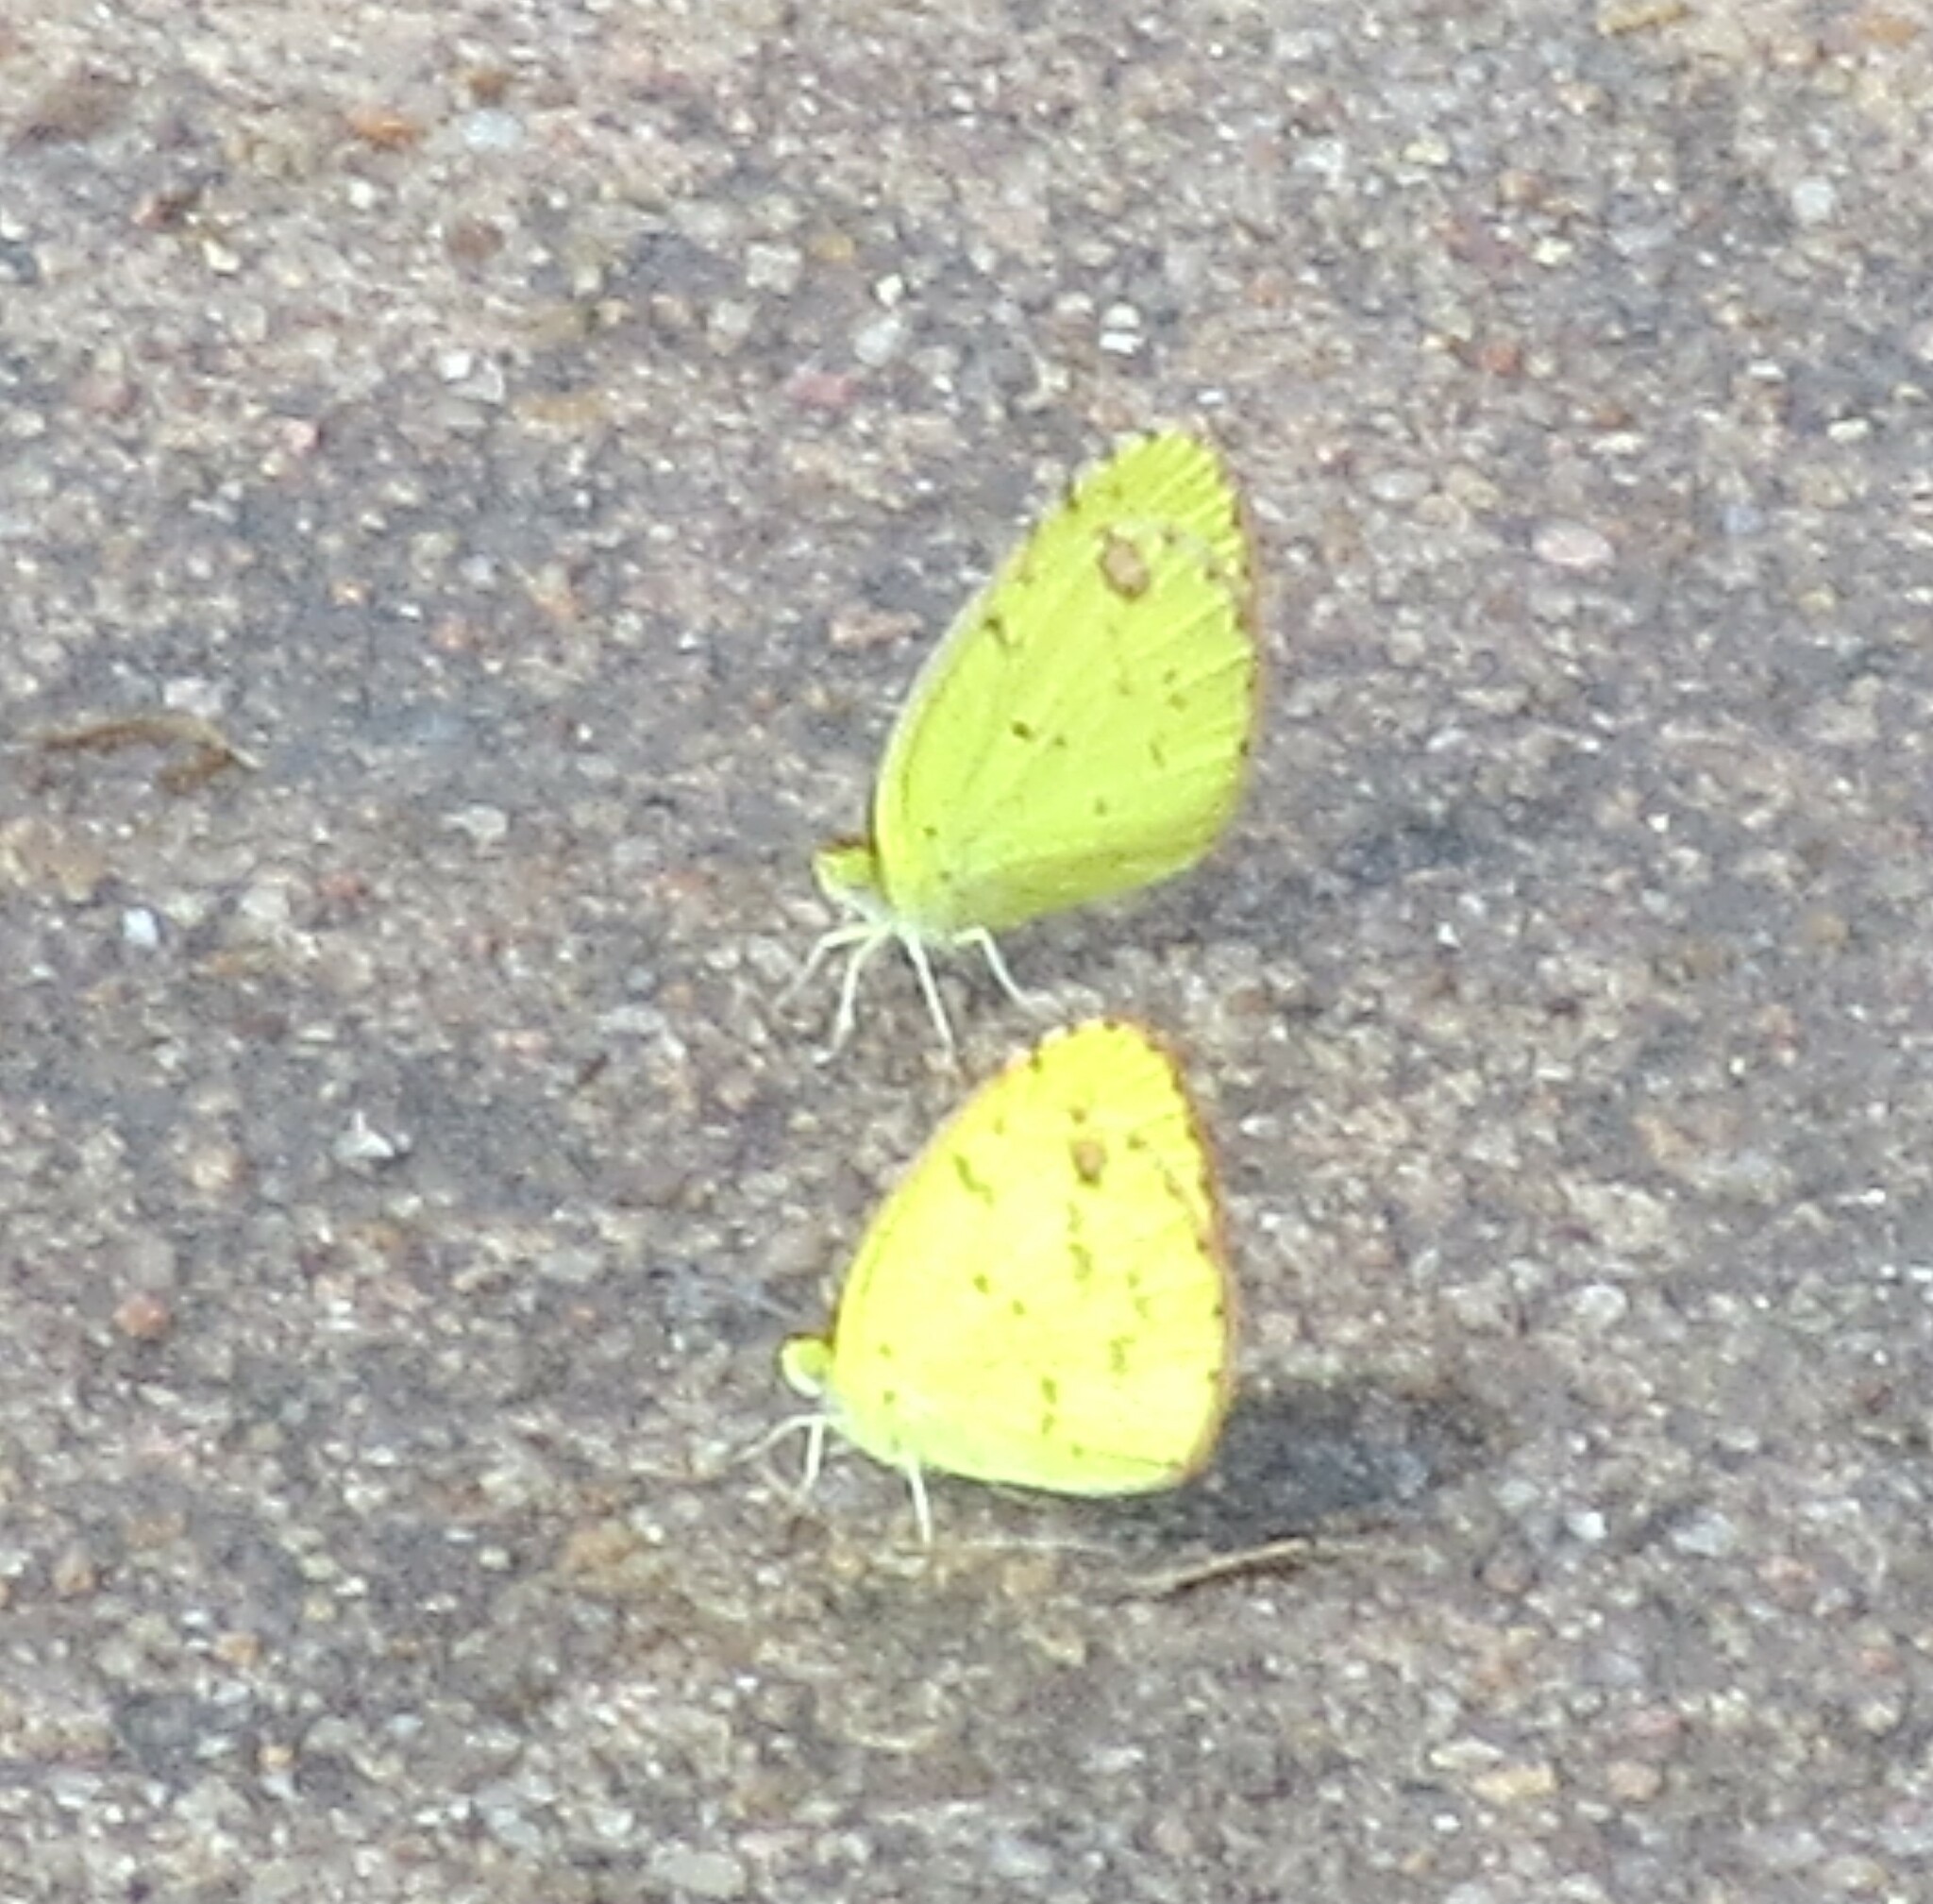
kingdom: Animalia
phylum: Arthropoda
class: Insecta
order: Lepidoptera
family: Pieridae
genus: Pyrisitia
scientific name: Pyrisitia lisa
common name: Little yellow
